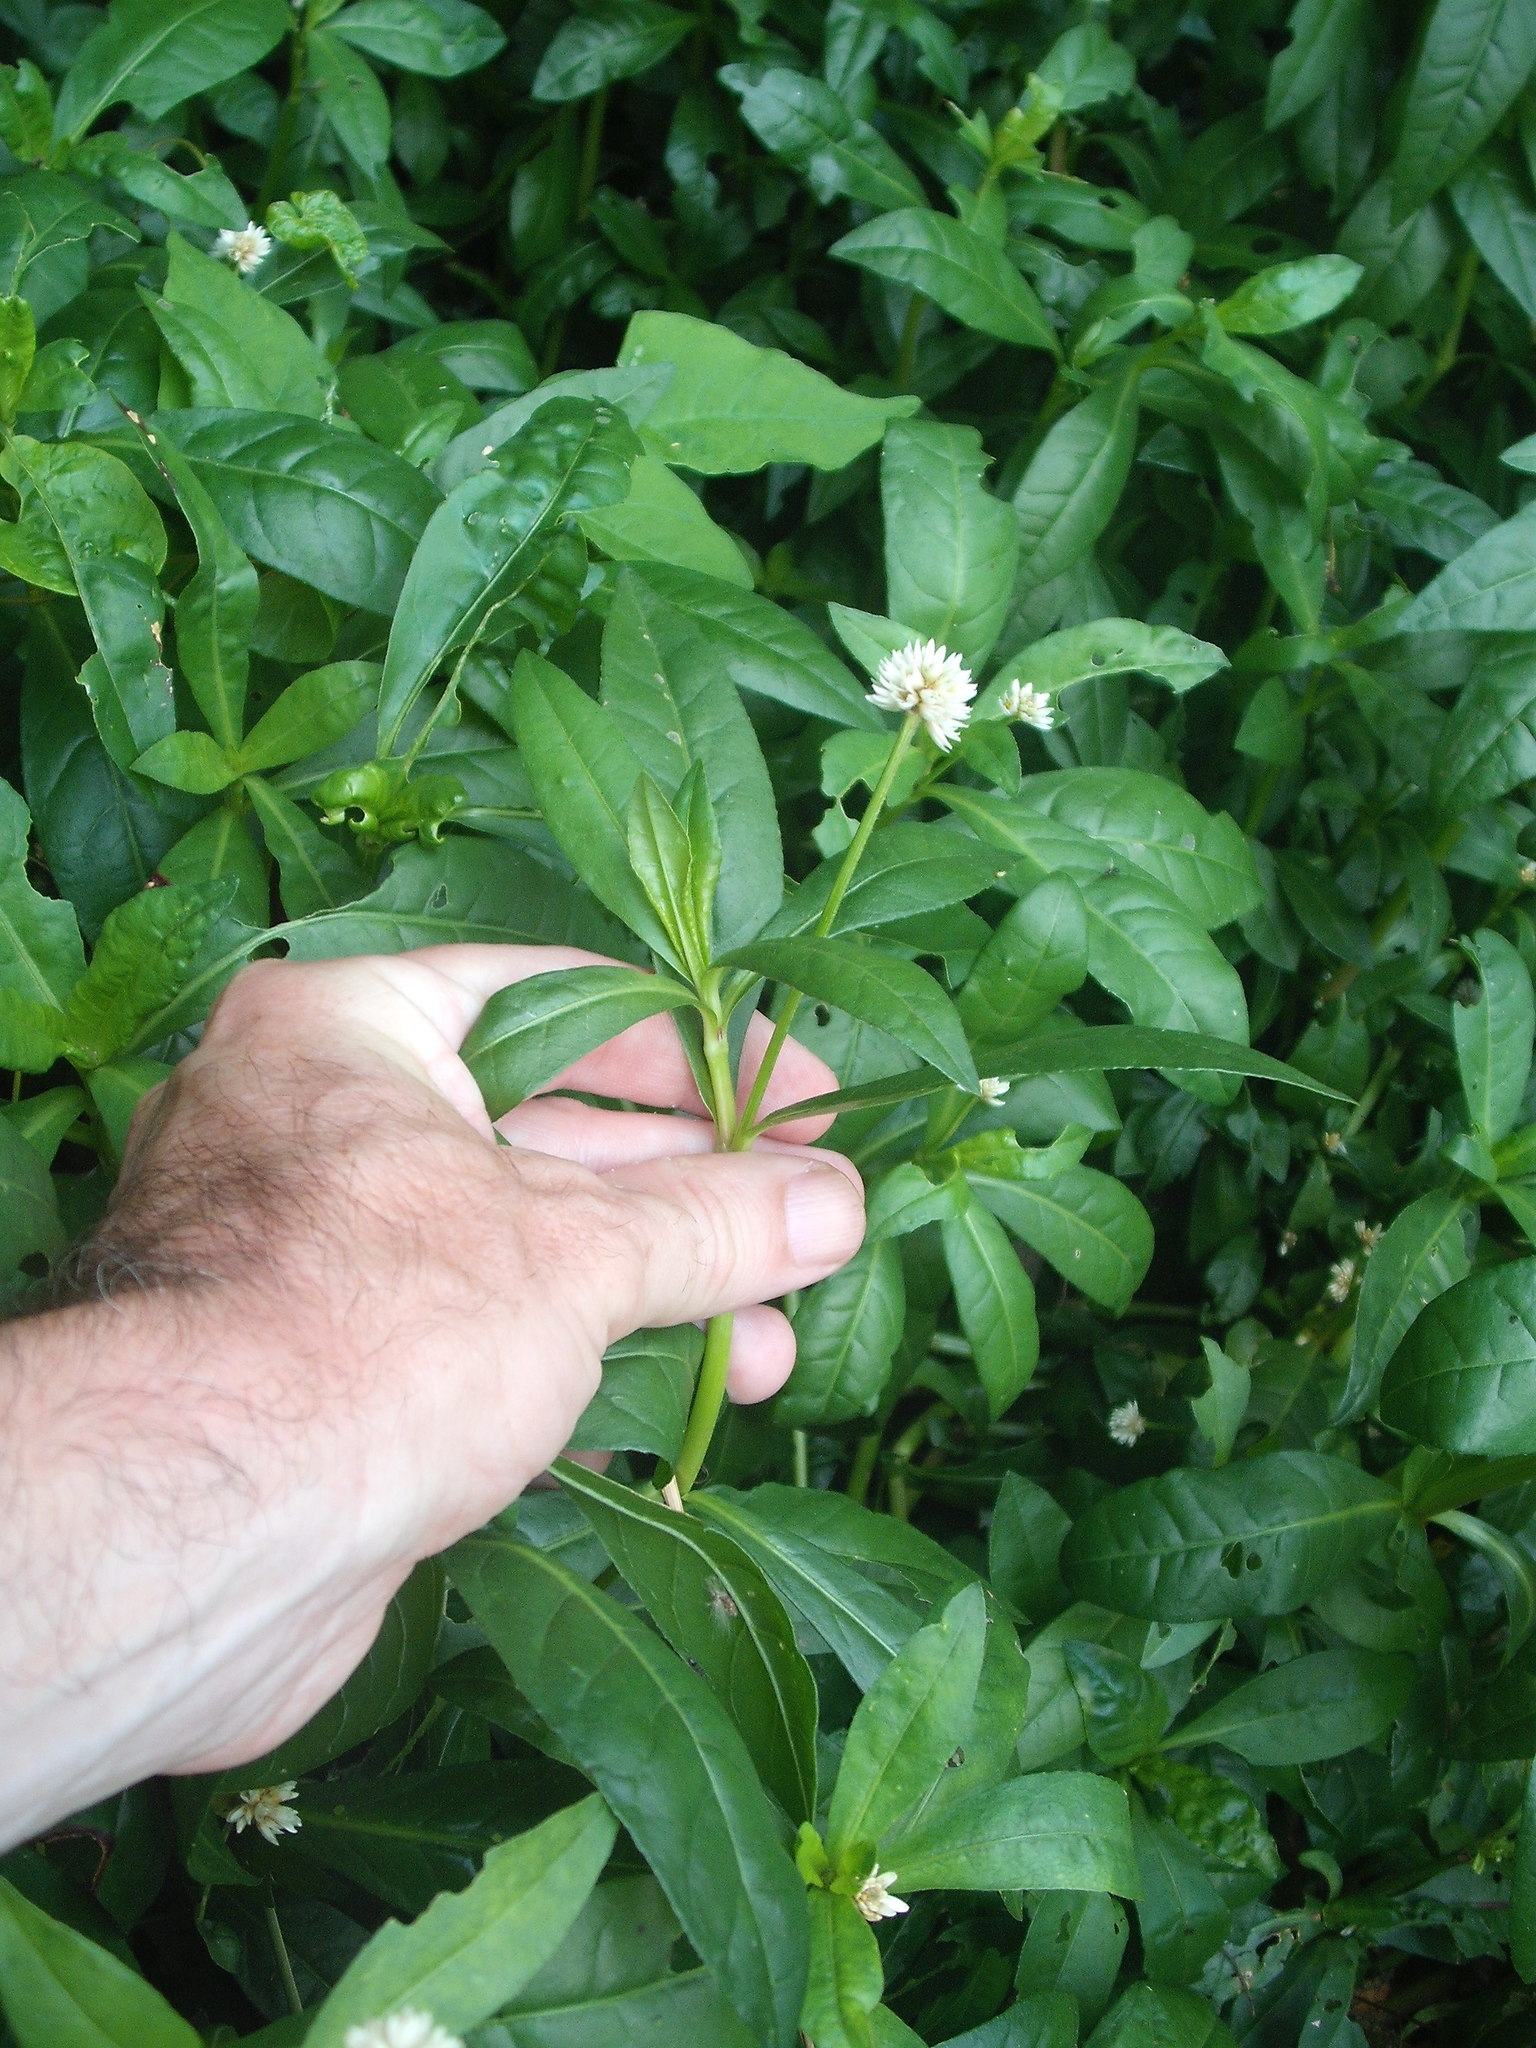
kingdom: Plantae
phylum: Tracheophyta
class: Magnoliopsida
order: Caryophyllales
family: Amaranthaceae
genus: Alternanthera
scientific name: Alternanthera philoxeroides
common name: Alligatorweed
